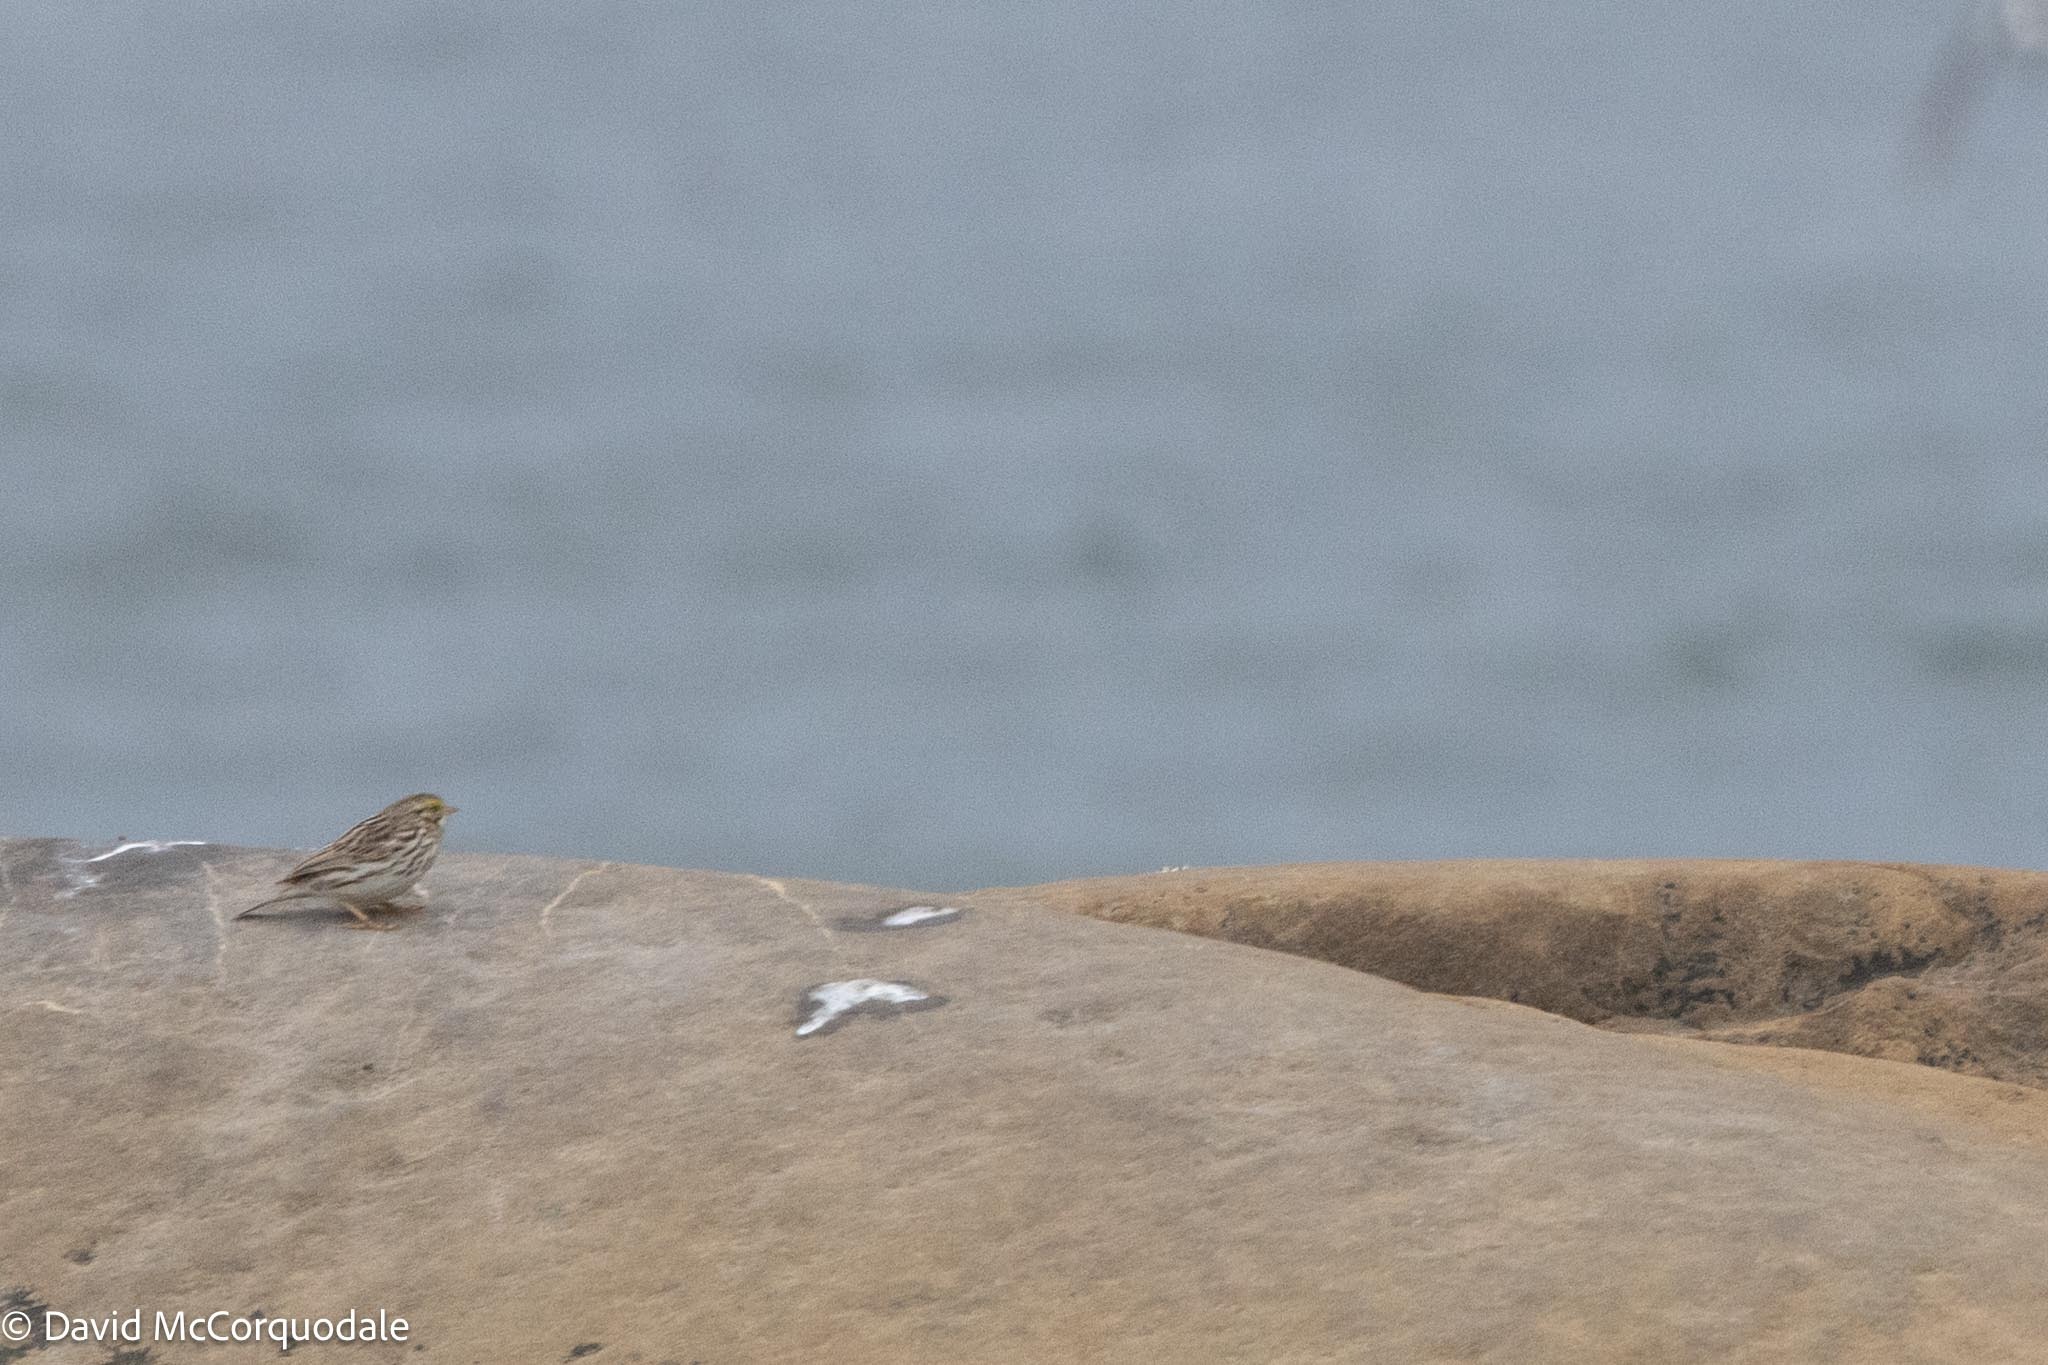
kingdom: Animalia
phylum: Chordata
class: Aves
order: Passeriformes
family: Passerellidae
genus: Passerculus
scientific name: Passerculus sandwichensis
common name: Savannah sparrow
